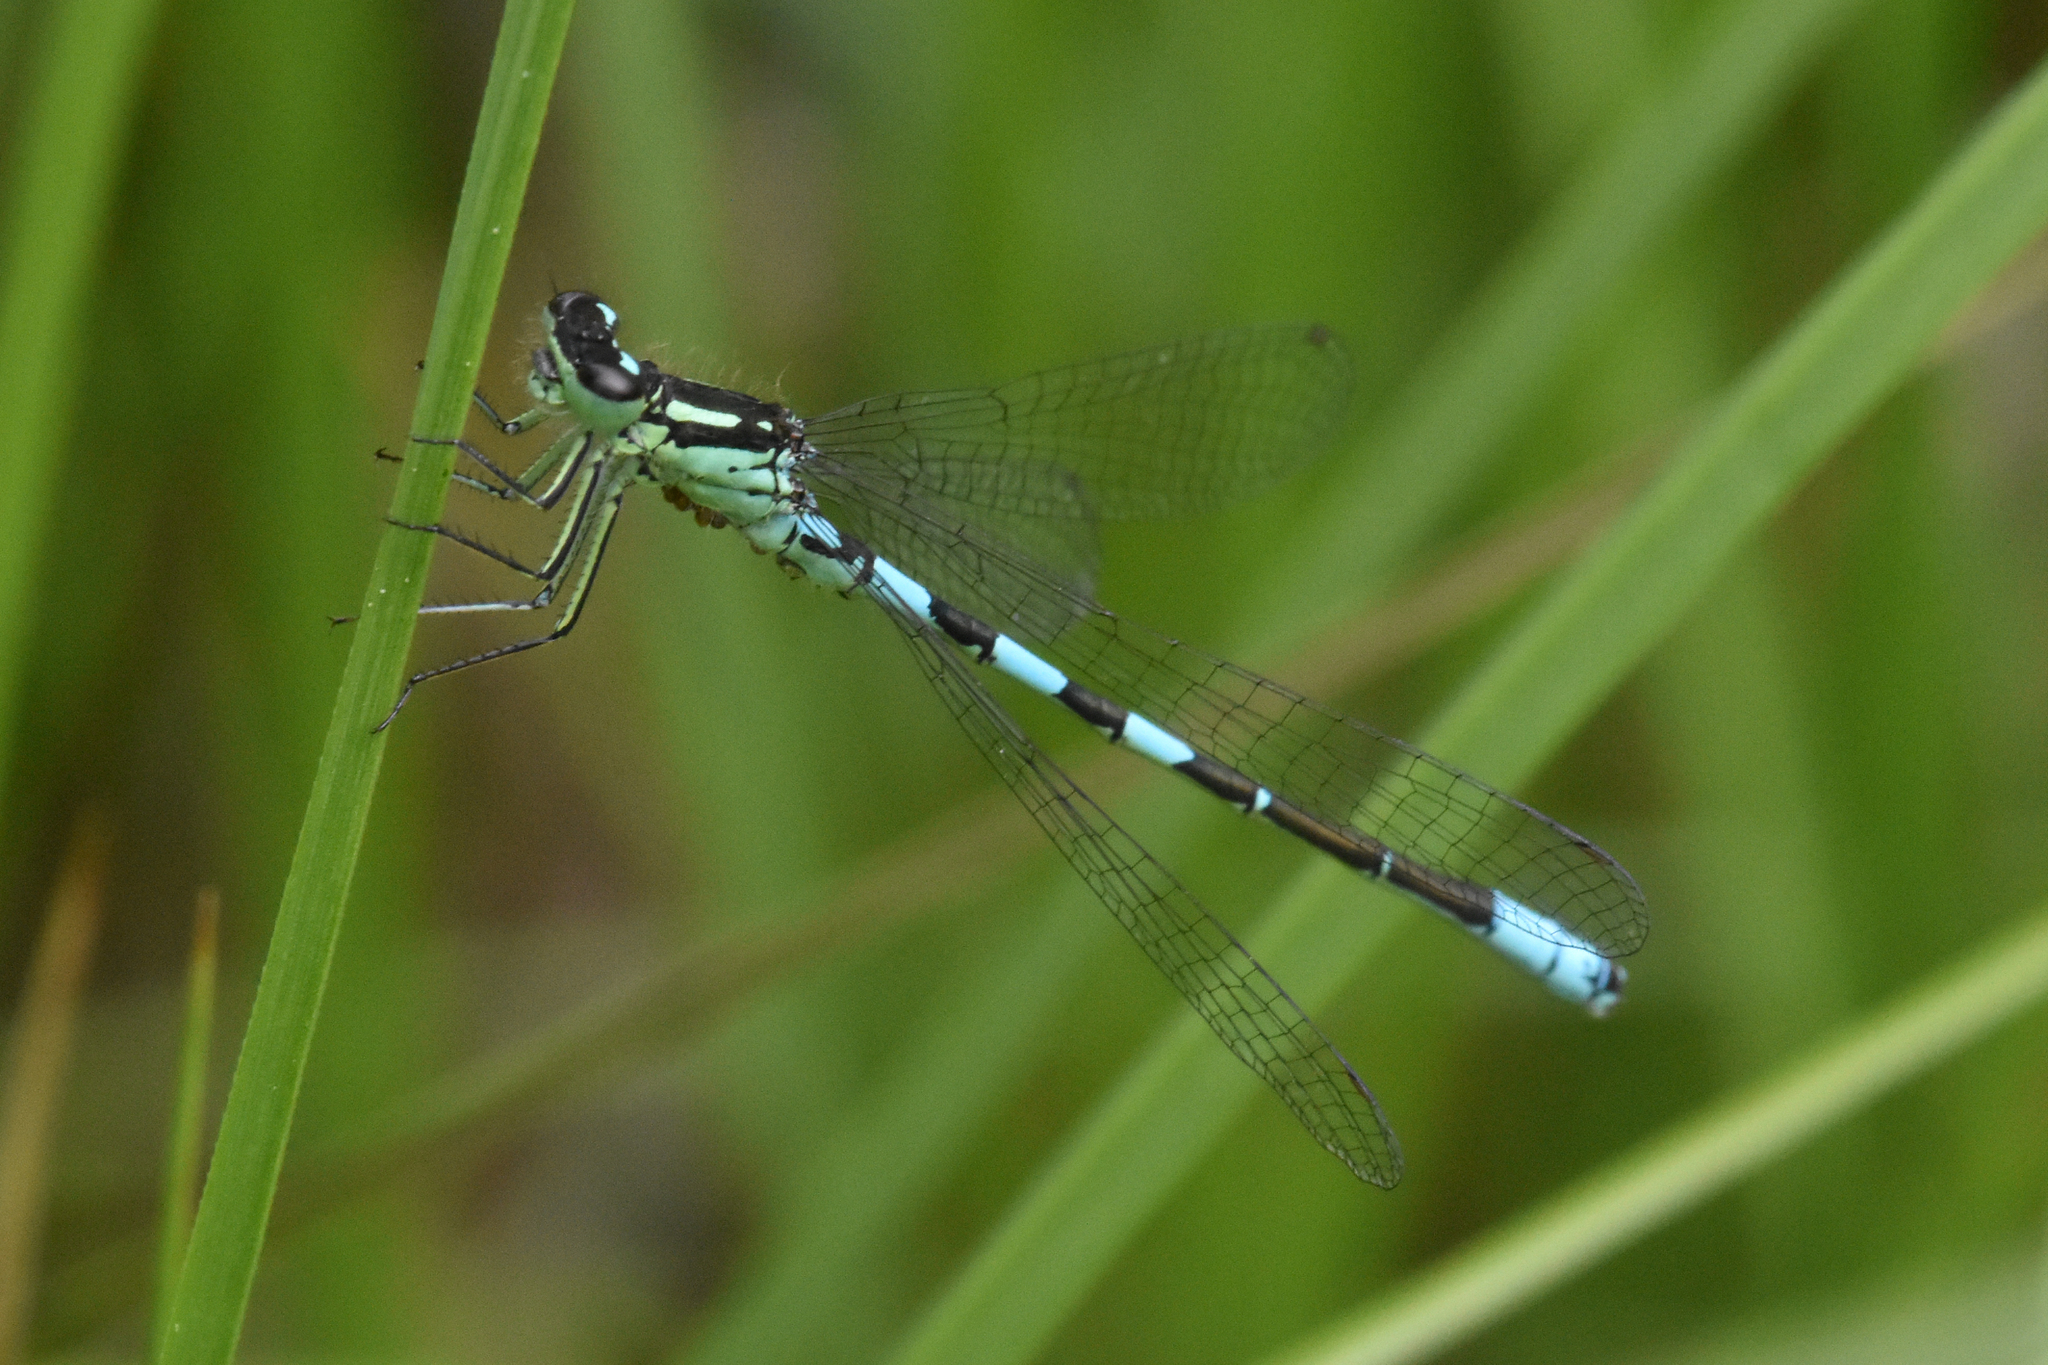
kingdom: Animalia
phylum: Arthropoda
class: Insecta
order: Odonata
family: Coenagrionidae
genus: Coenagrion
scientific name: Coenagrion resolutum
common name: Taiga bluet
